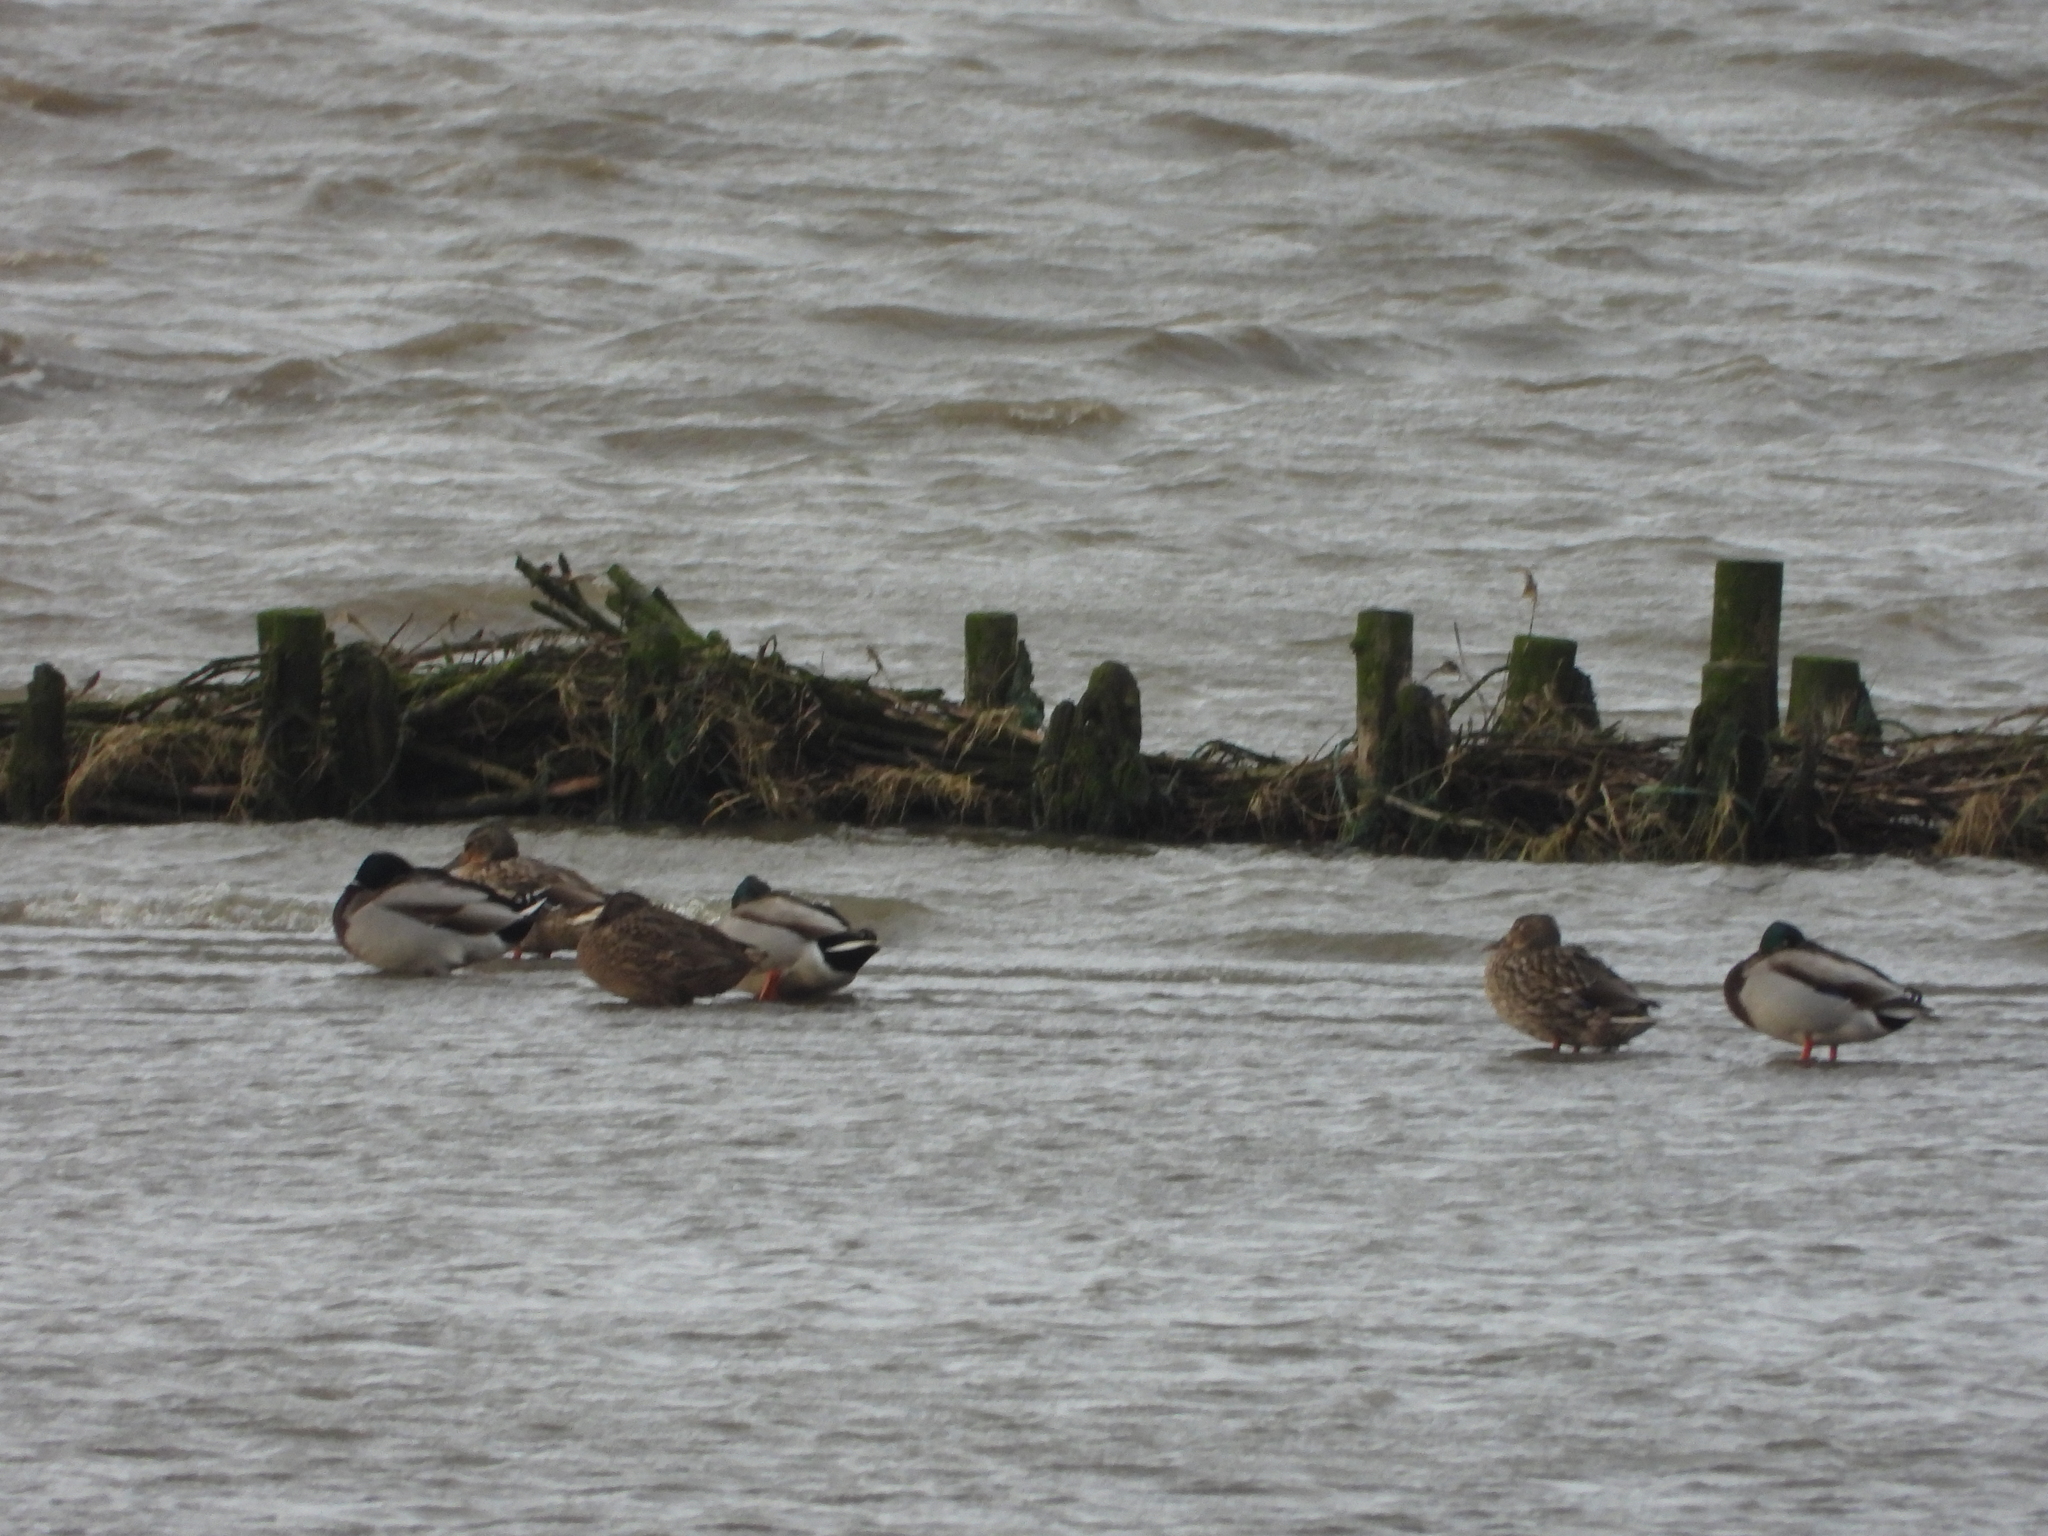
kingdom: Animalia
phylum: Chordata
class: Aves
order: Anseriformes
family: Anatidae
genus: Anas
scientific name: Anas platyrhynchos
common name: Mallard
